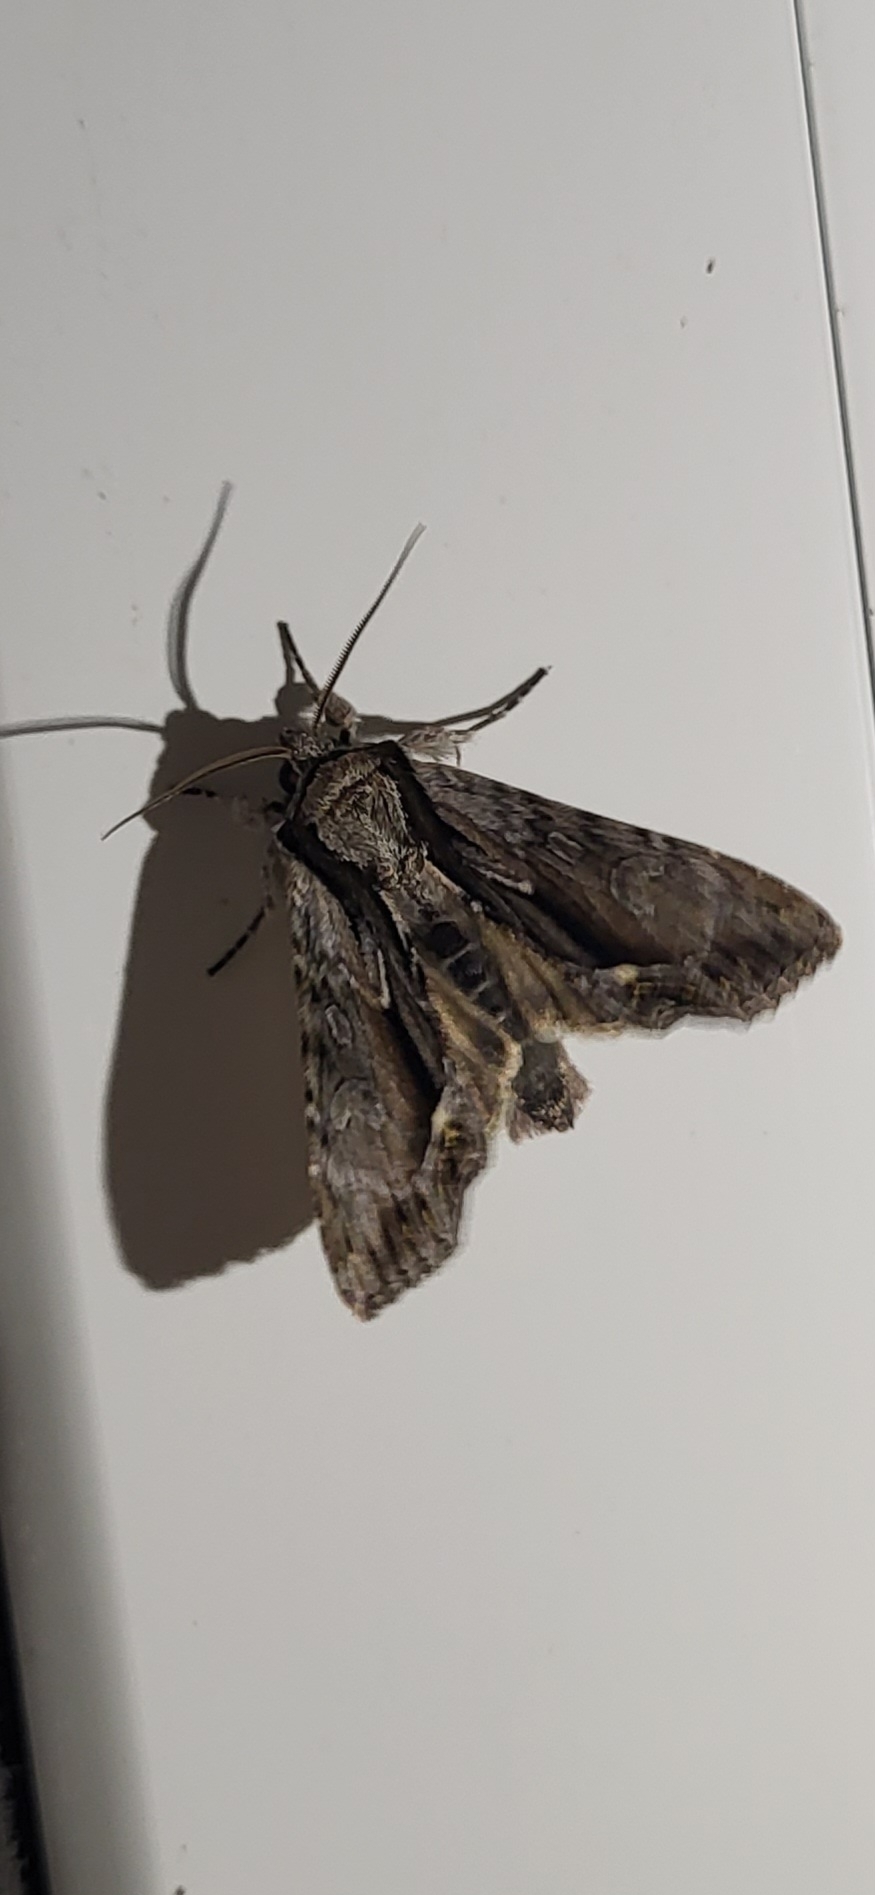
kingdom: Animalia
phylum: Arthropoda
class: Insecta
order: Lepidoptera
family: Noctuidae
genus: Hyppa
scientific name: Hyppa xylinoides
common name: Common hyppa moth
